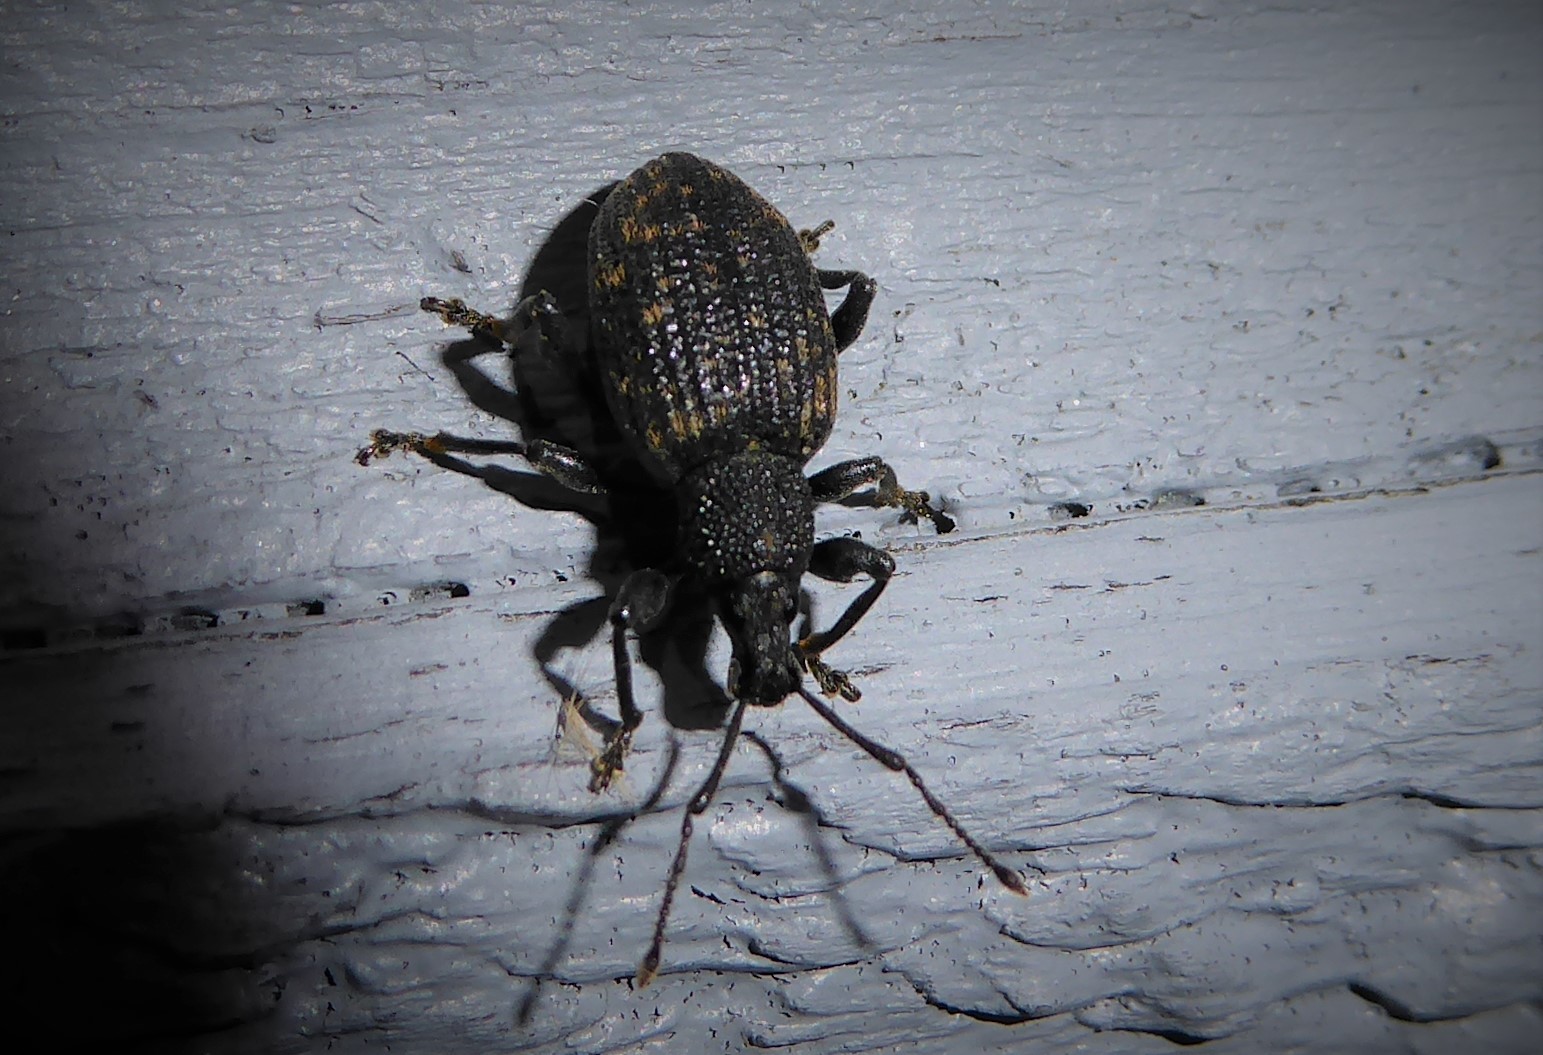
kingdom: Animalia
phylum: Arthropoda
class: Insecta
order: Coleoptera
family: Curculionidae
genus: Otiorhynchus
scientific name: Otiorhynchus sulcatus
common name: Black vine weevil
